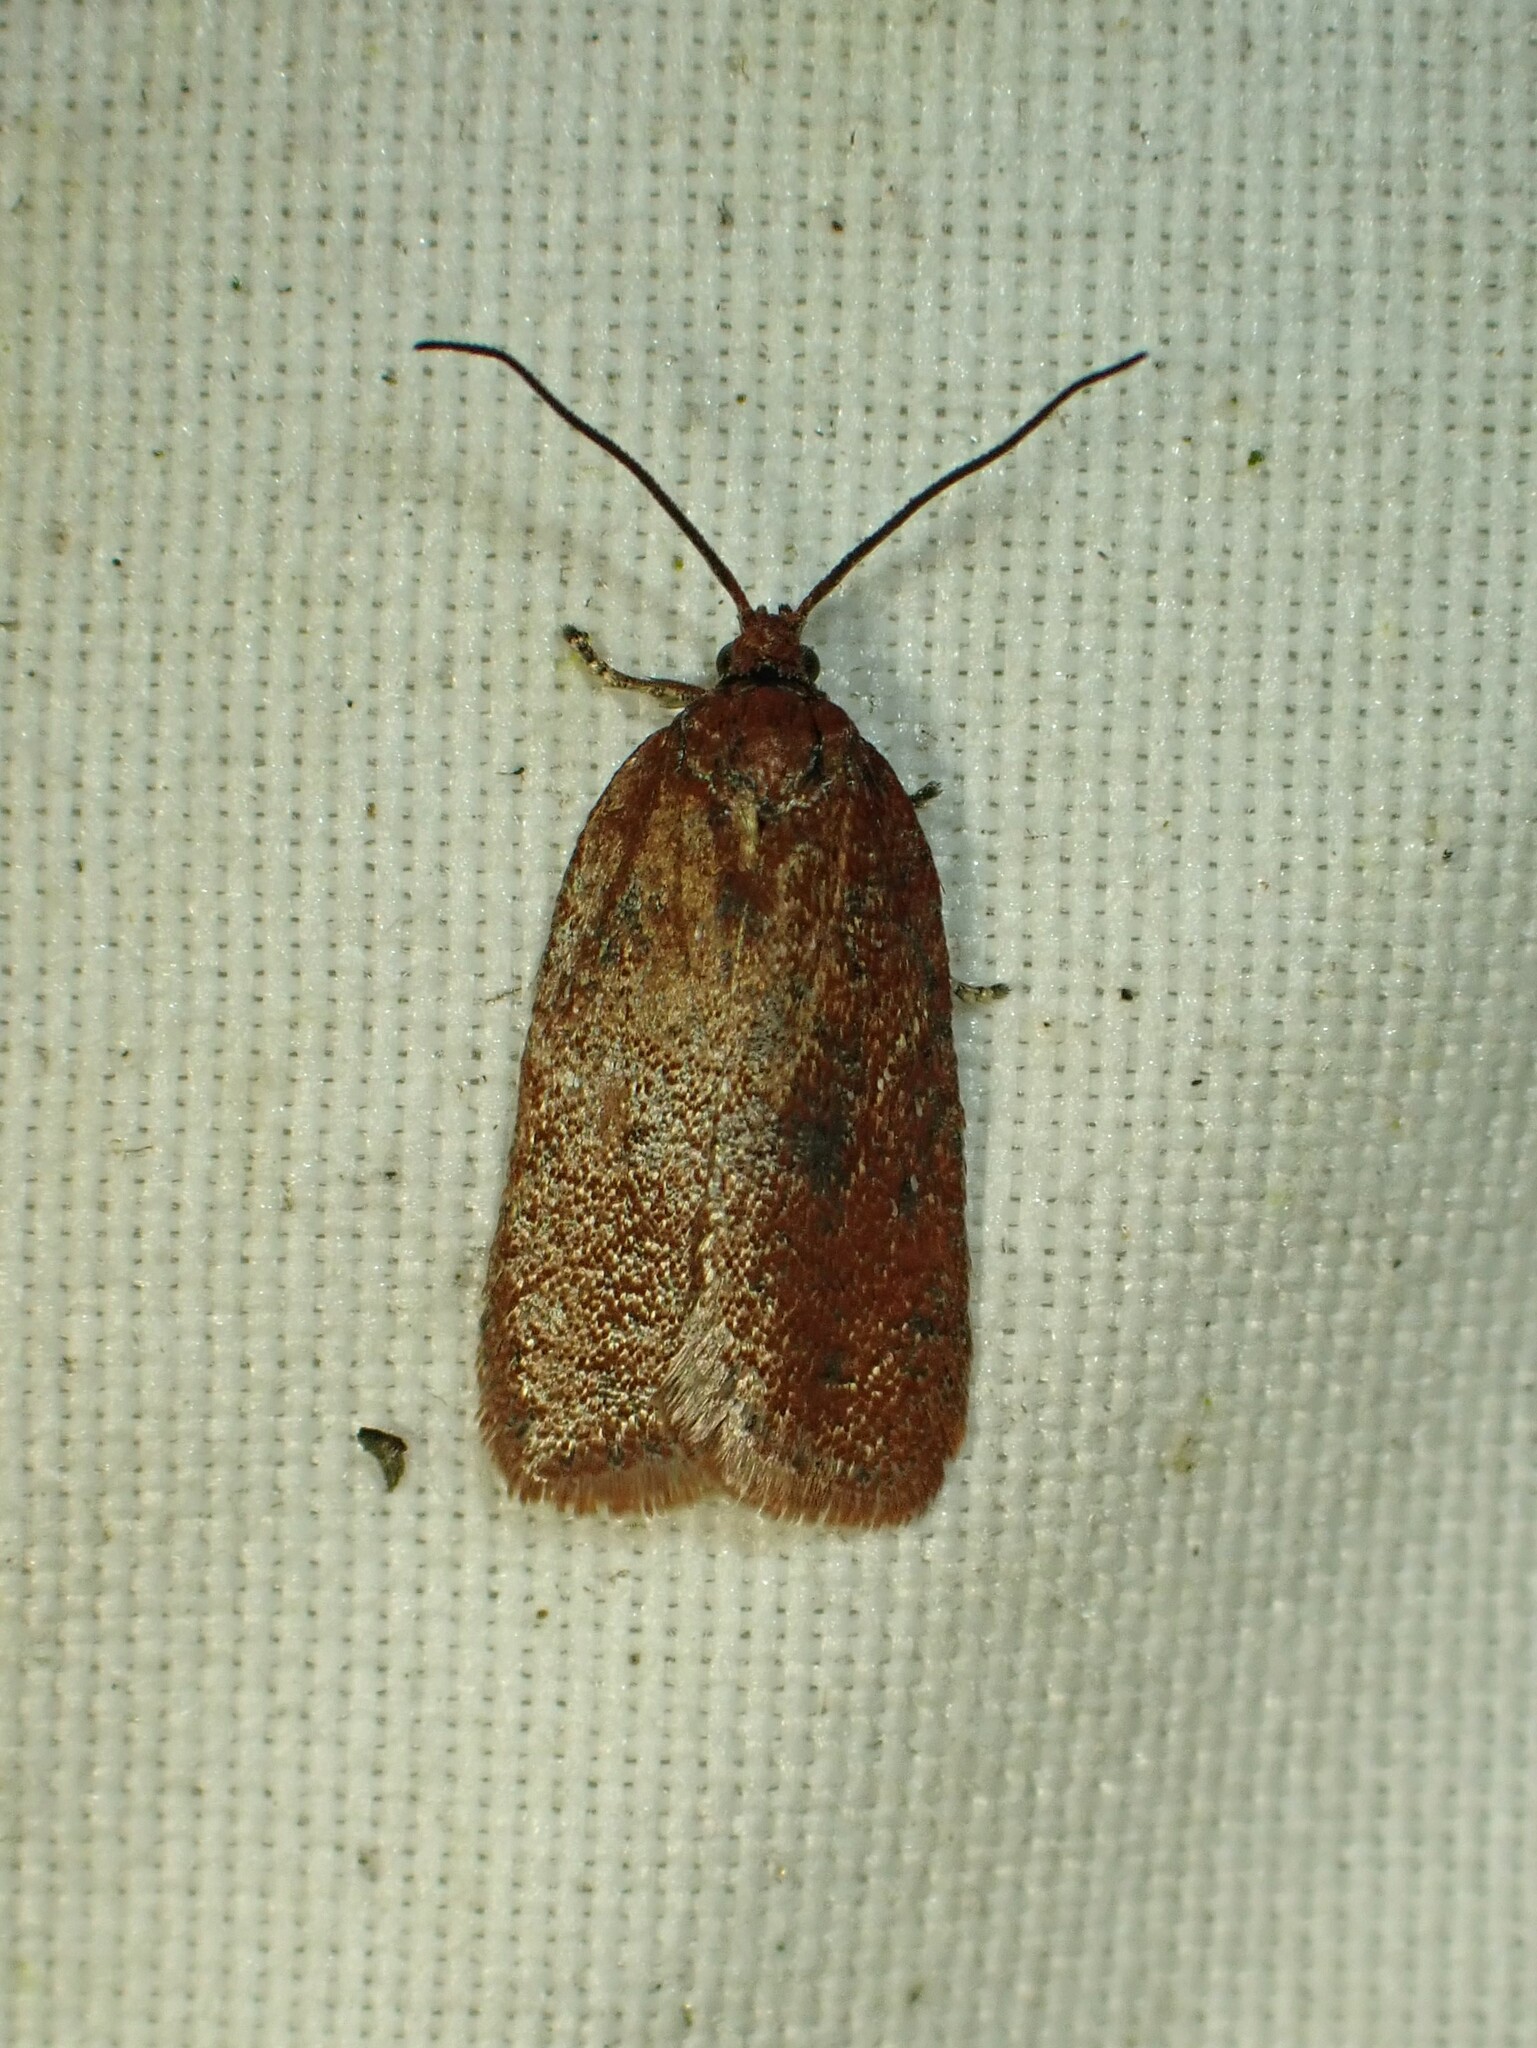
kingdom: Animalia
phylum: Arthropoda
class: Insecta
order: Lepidoptera
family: Tortricidae
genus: Acleris
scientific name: Acleris oxycoccana
